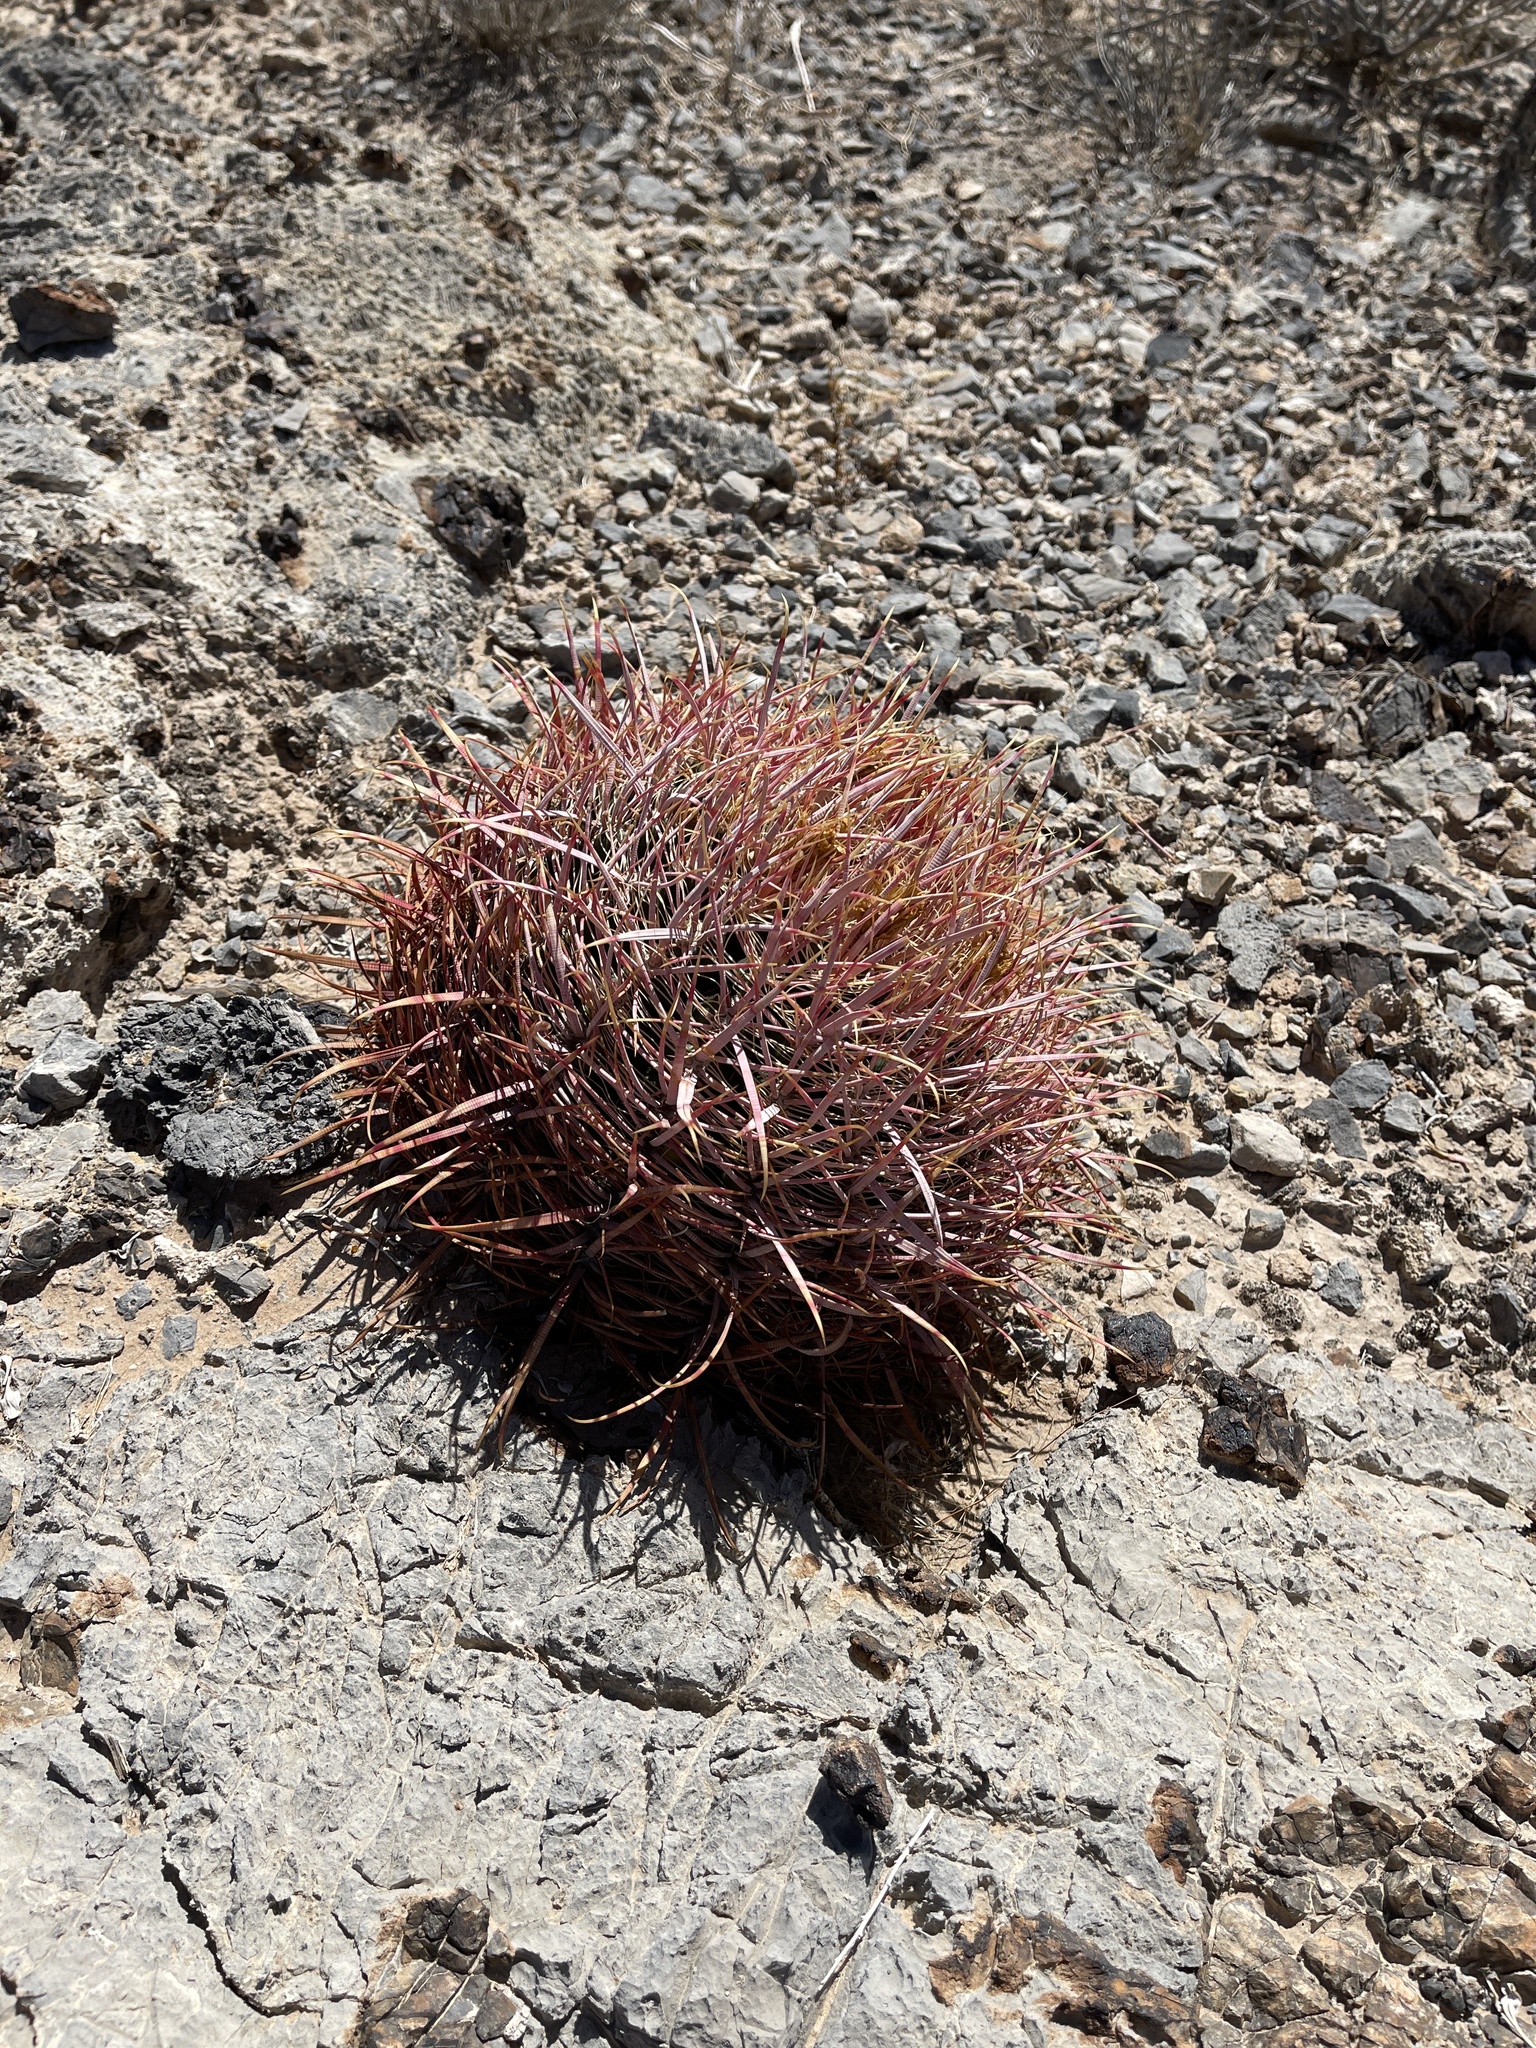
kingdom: Plantae
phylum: Tracheophyta
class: Magnoliopsida
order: Caryophyllales
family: Cactaceae
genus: Ferocactus
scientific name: Ferocactus cylindraceus
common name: California barrel cactus
